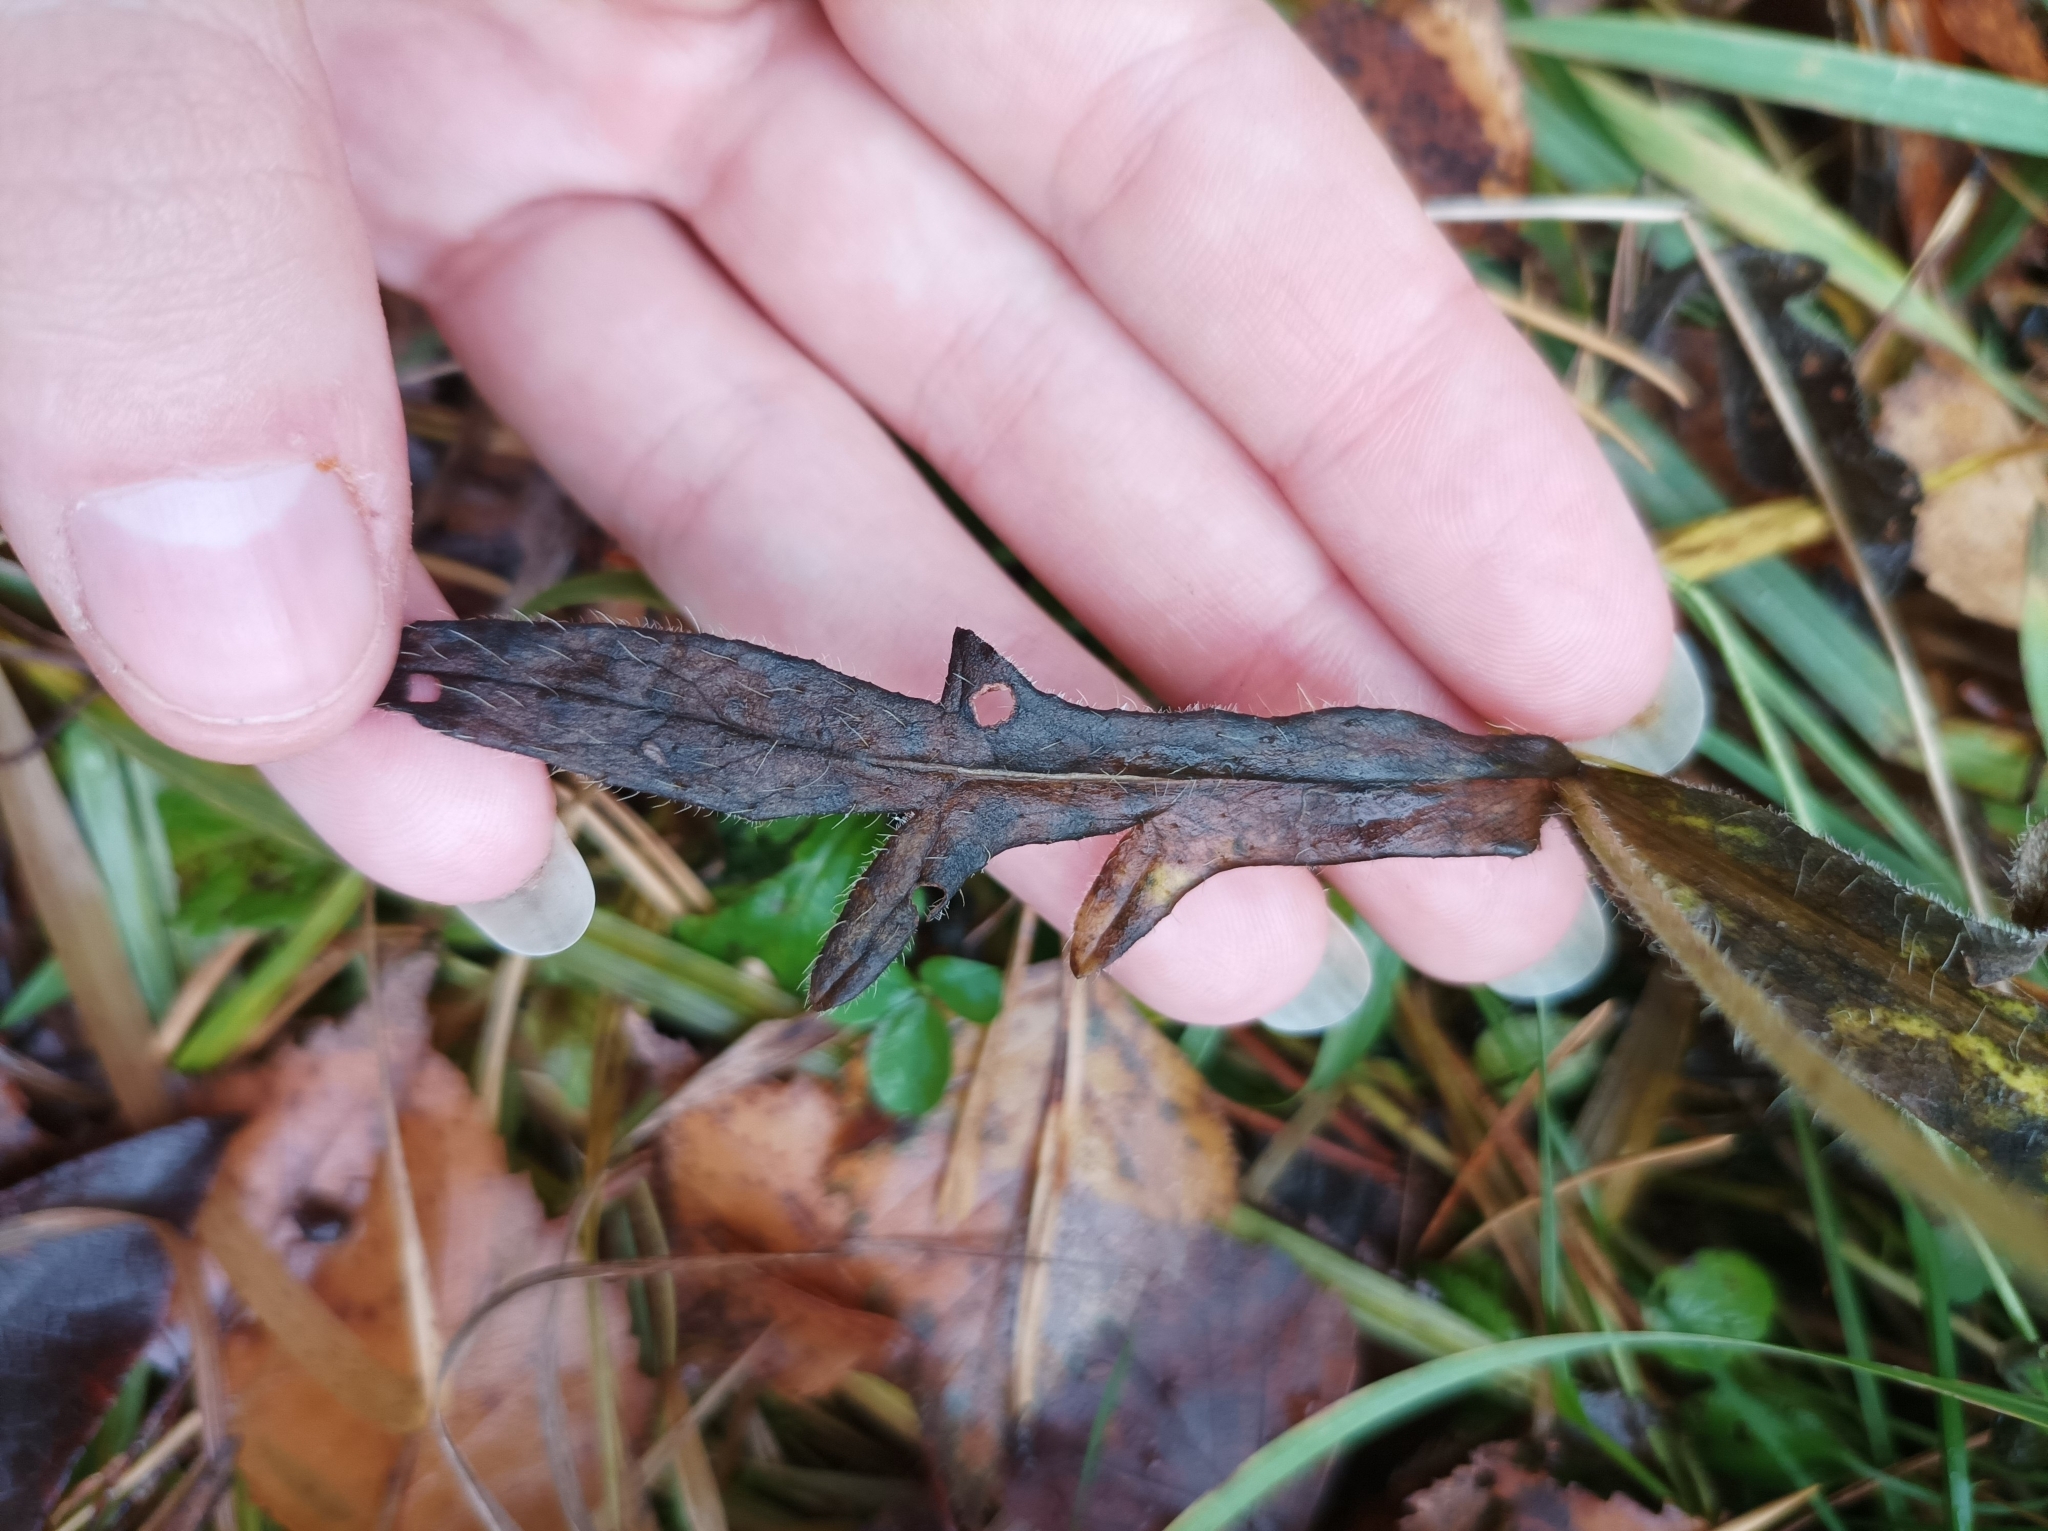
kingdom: Plantae
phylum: Tracheophyta
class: Magnoliopsida
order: Dipsacales
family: Caprifoliaceae
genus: Knautia
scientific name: Knautia arvensis
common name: Field scabiosa
